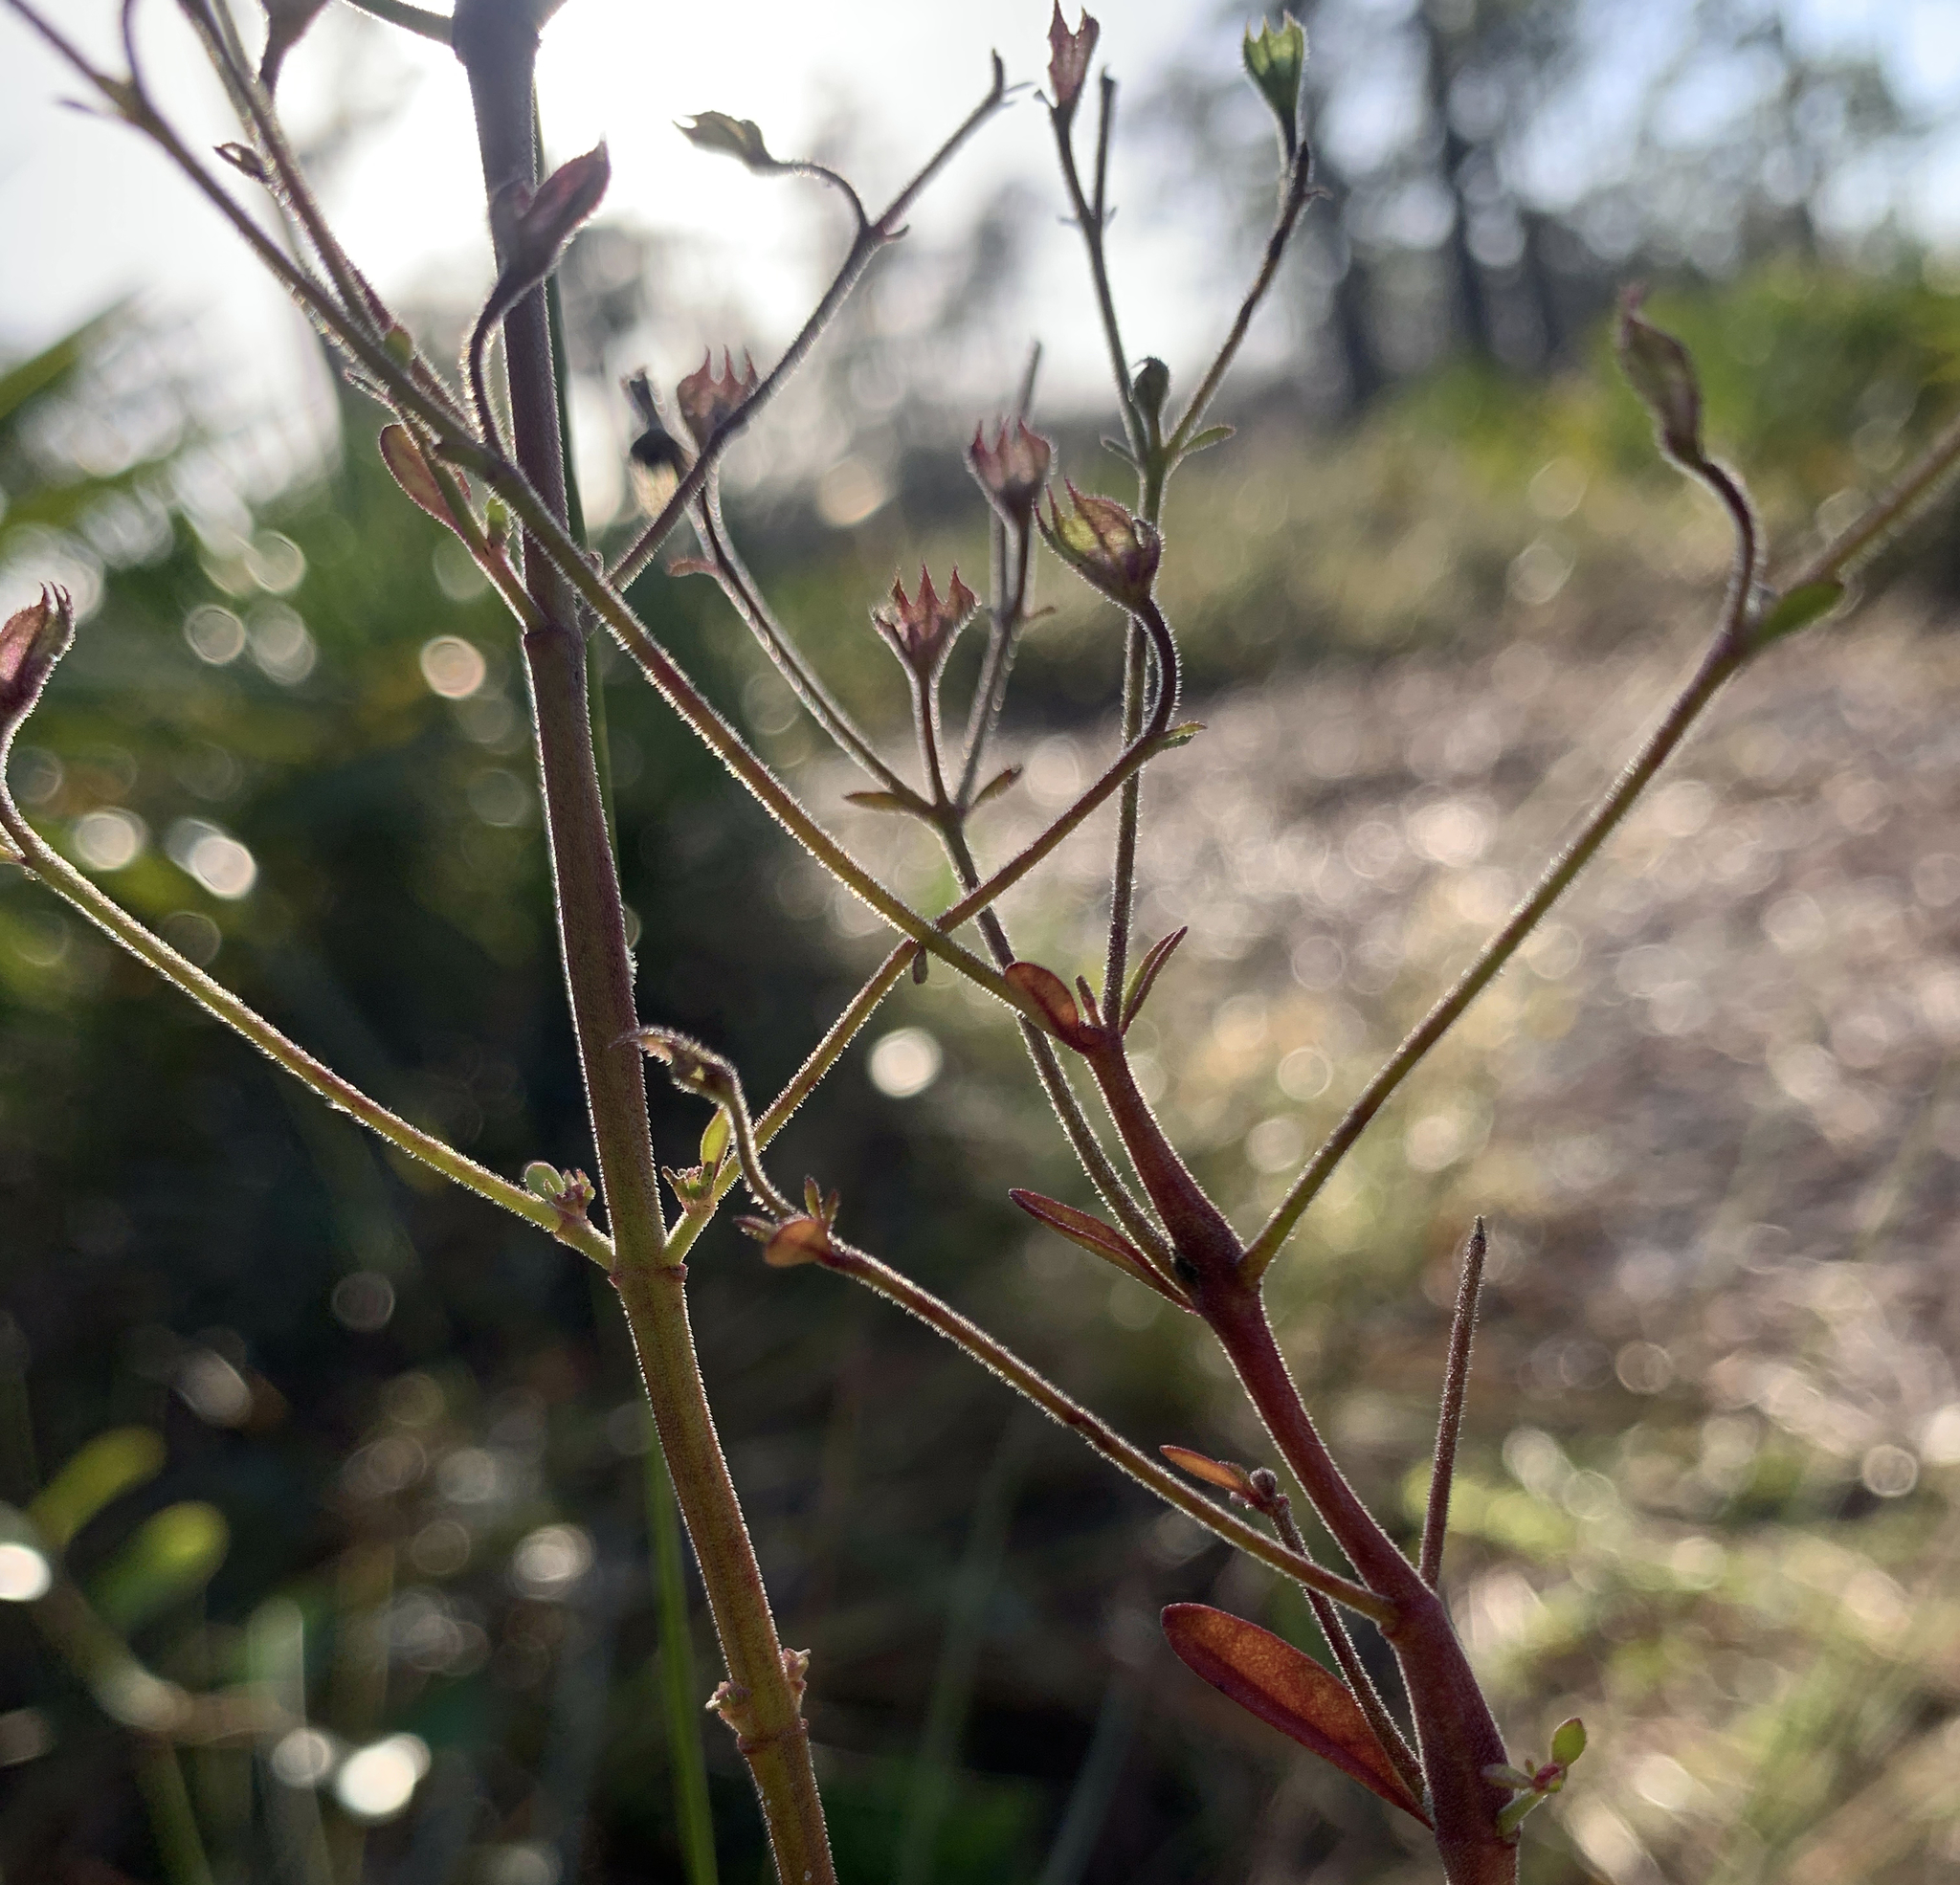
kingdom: Plantae
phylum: Tracheophyta
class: Magnoliopsida
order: Lamiales
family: Lamiaceae
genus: Trichostema
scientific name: Trichostema gracile
